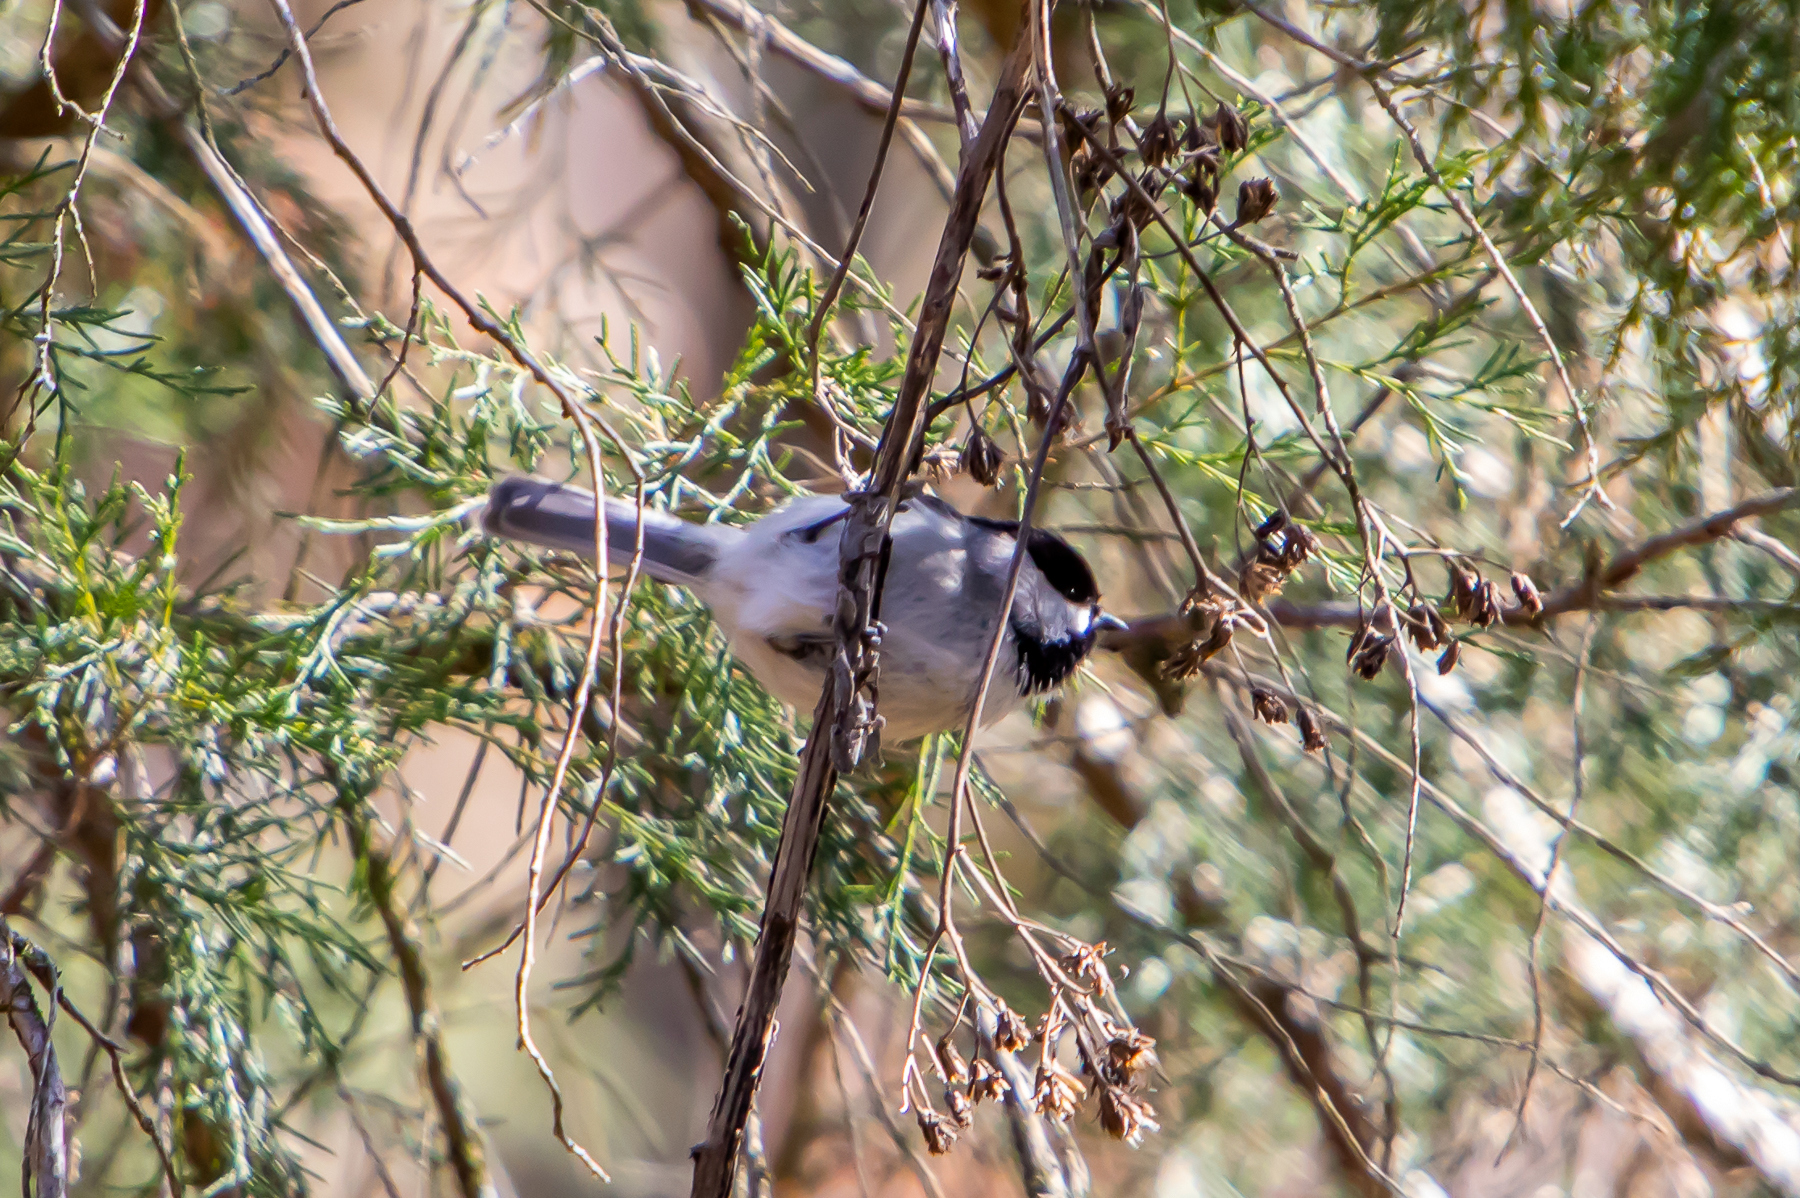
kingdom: Animalia
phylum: Chordata
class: Aves
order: Passeriformes
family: Paridae
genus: Poecile
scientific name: Poecile carolinensis
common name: Carolina chickadee
